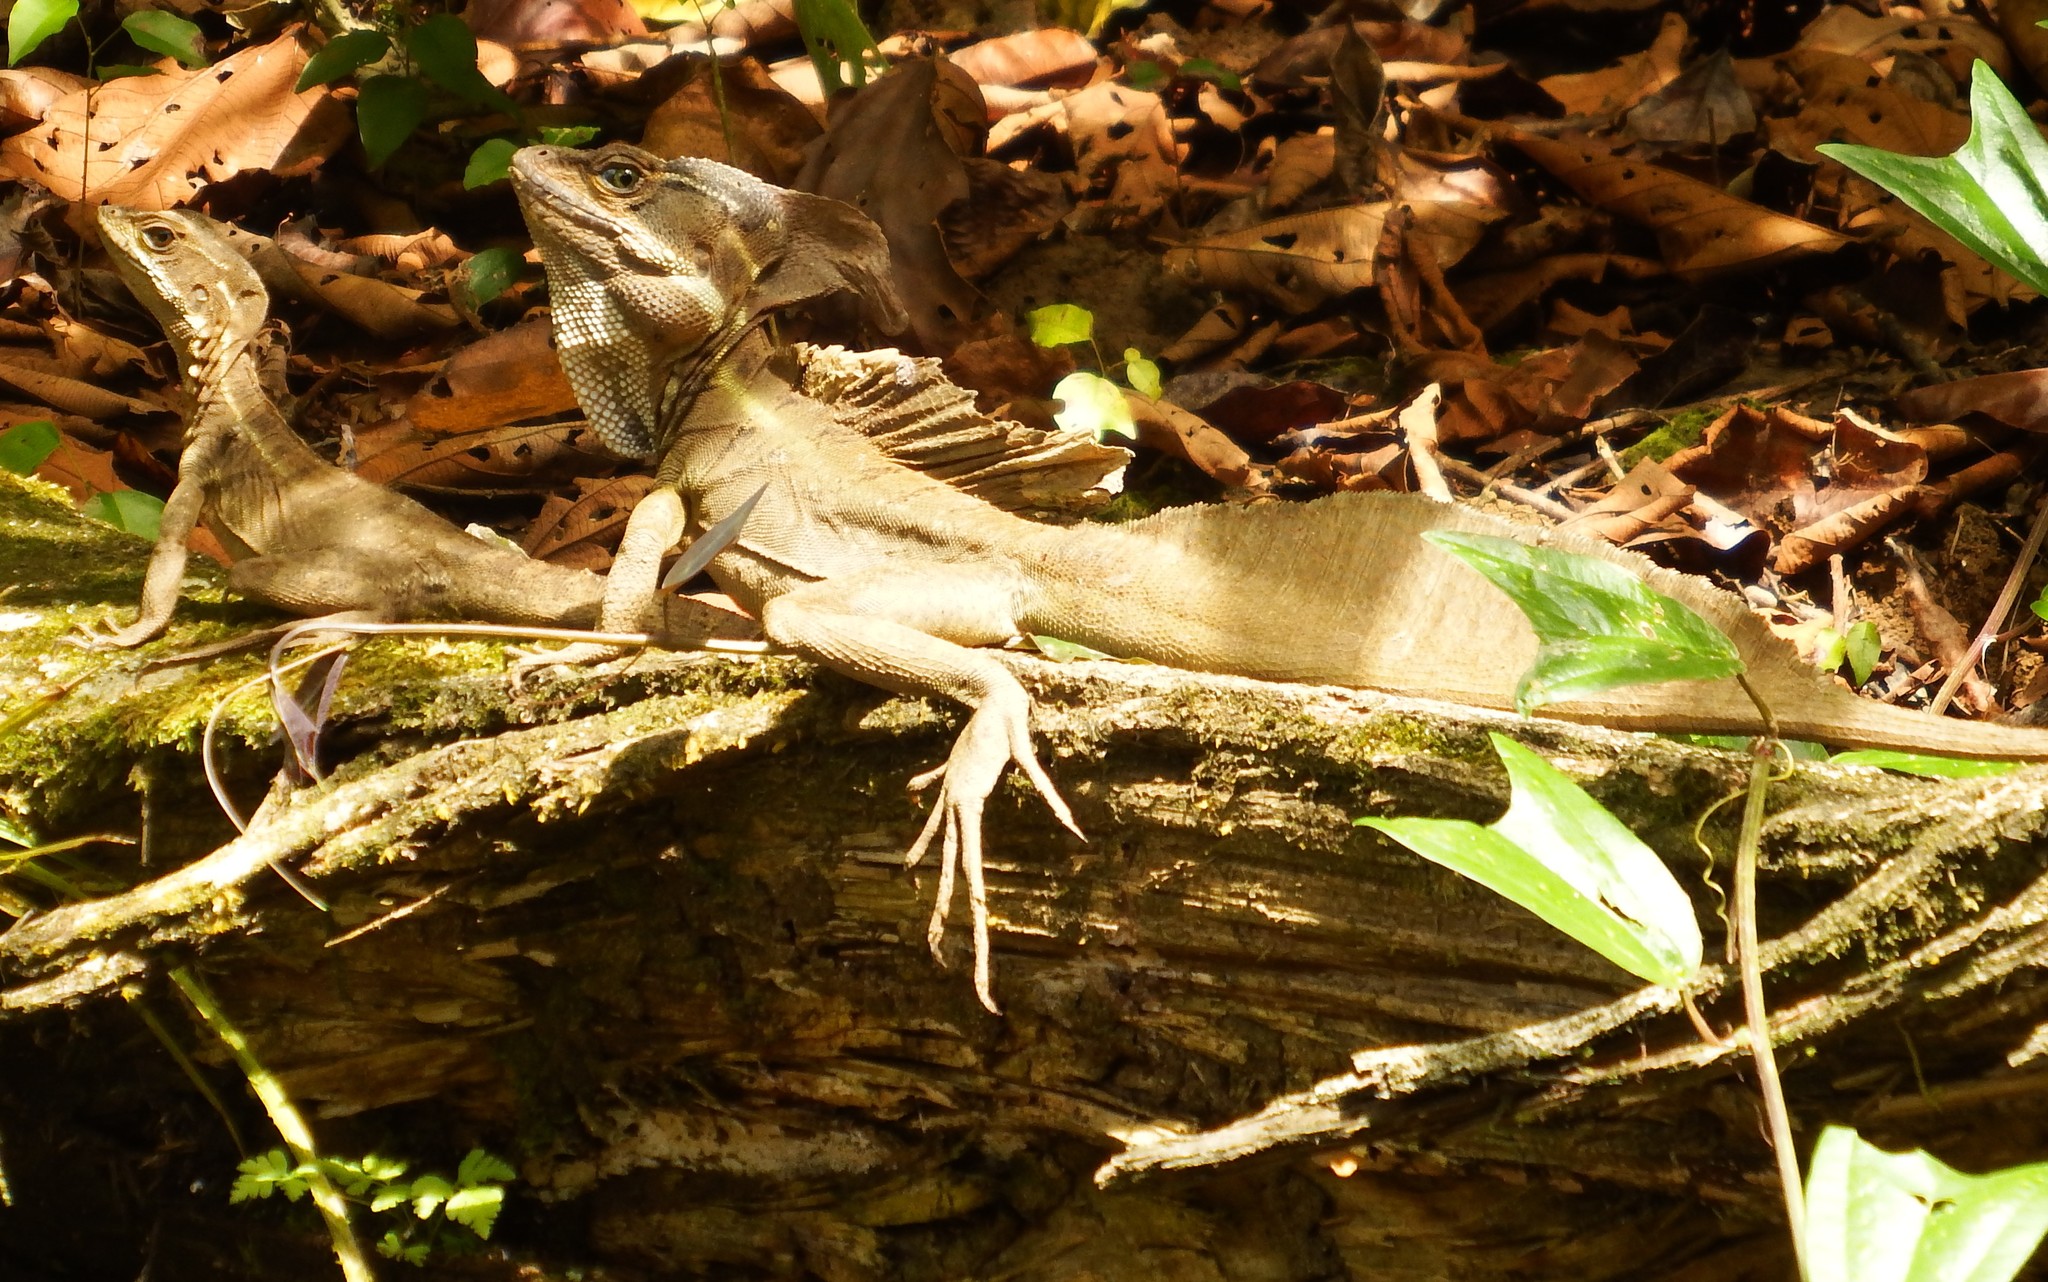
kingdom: Animalia
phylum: Chordata
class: Squamata
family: Corytophanidae
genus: Basiliscus
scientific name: Basiliscus basiliscus
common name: Common basilisk
